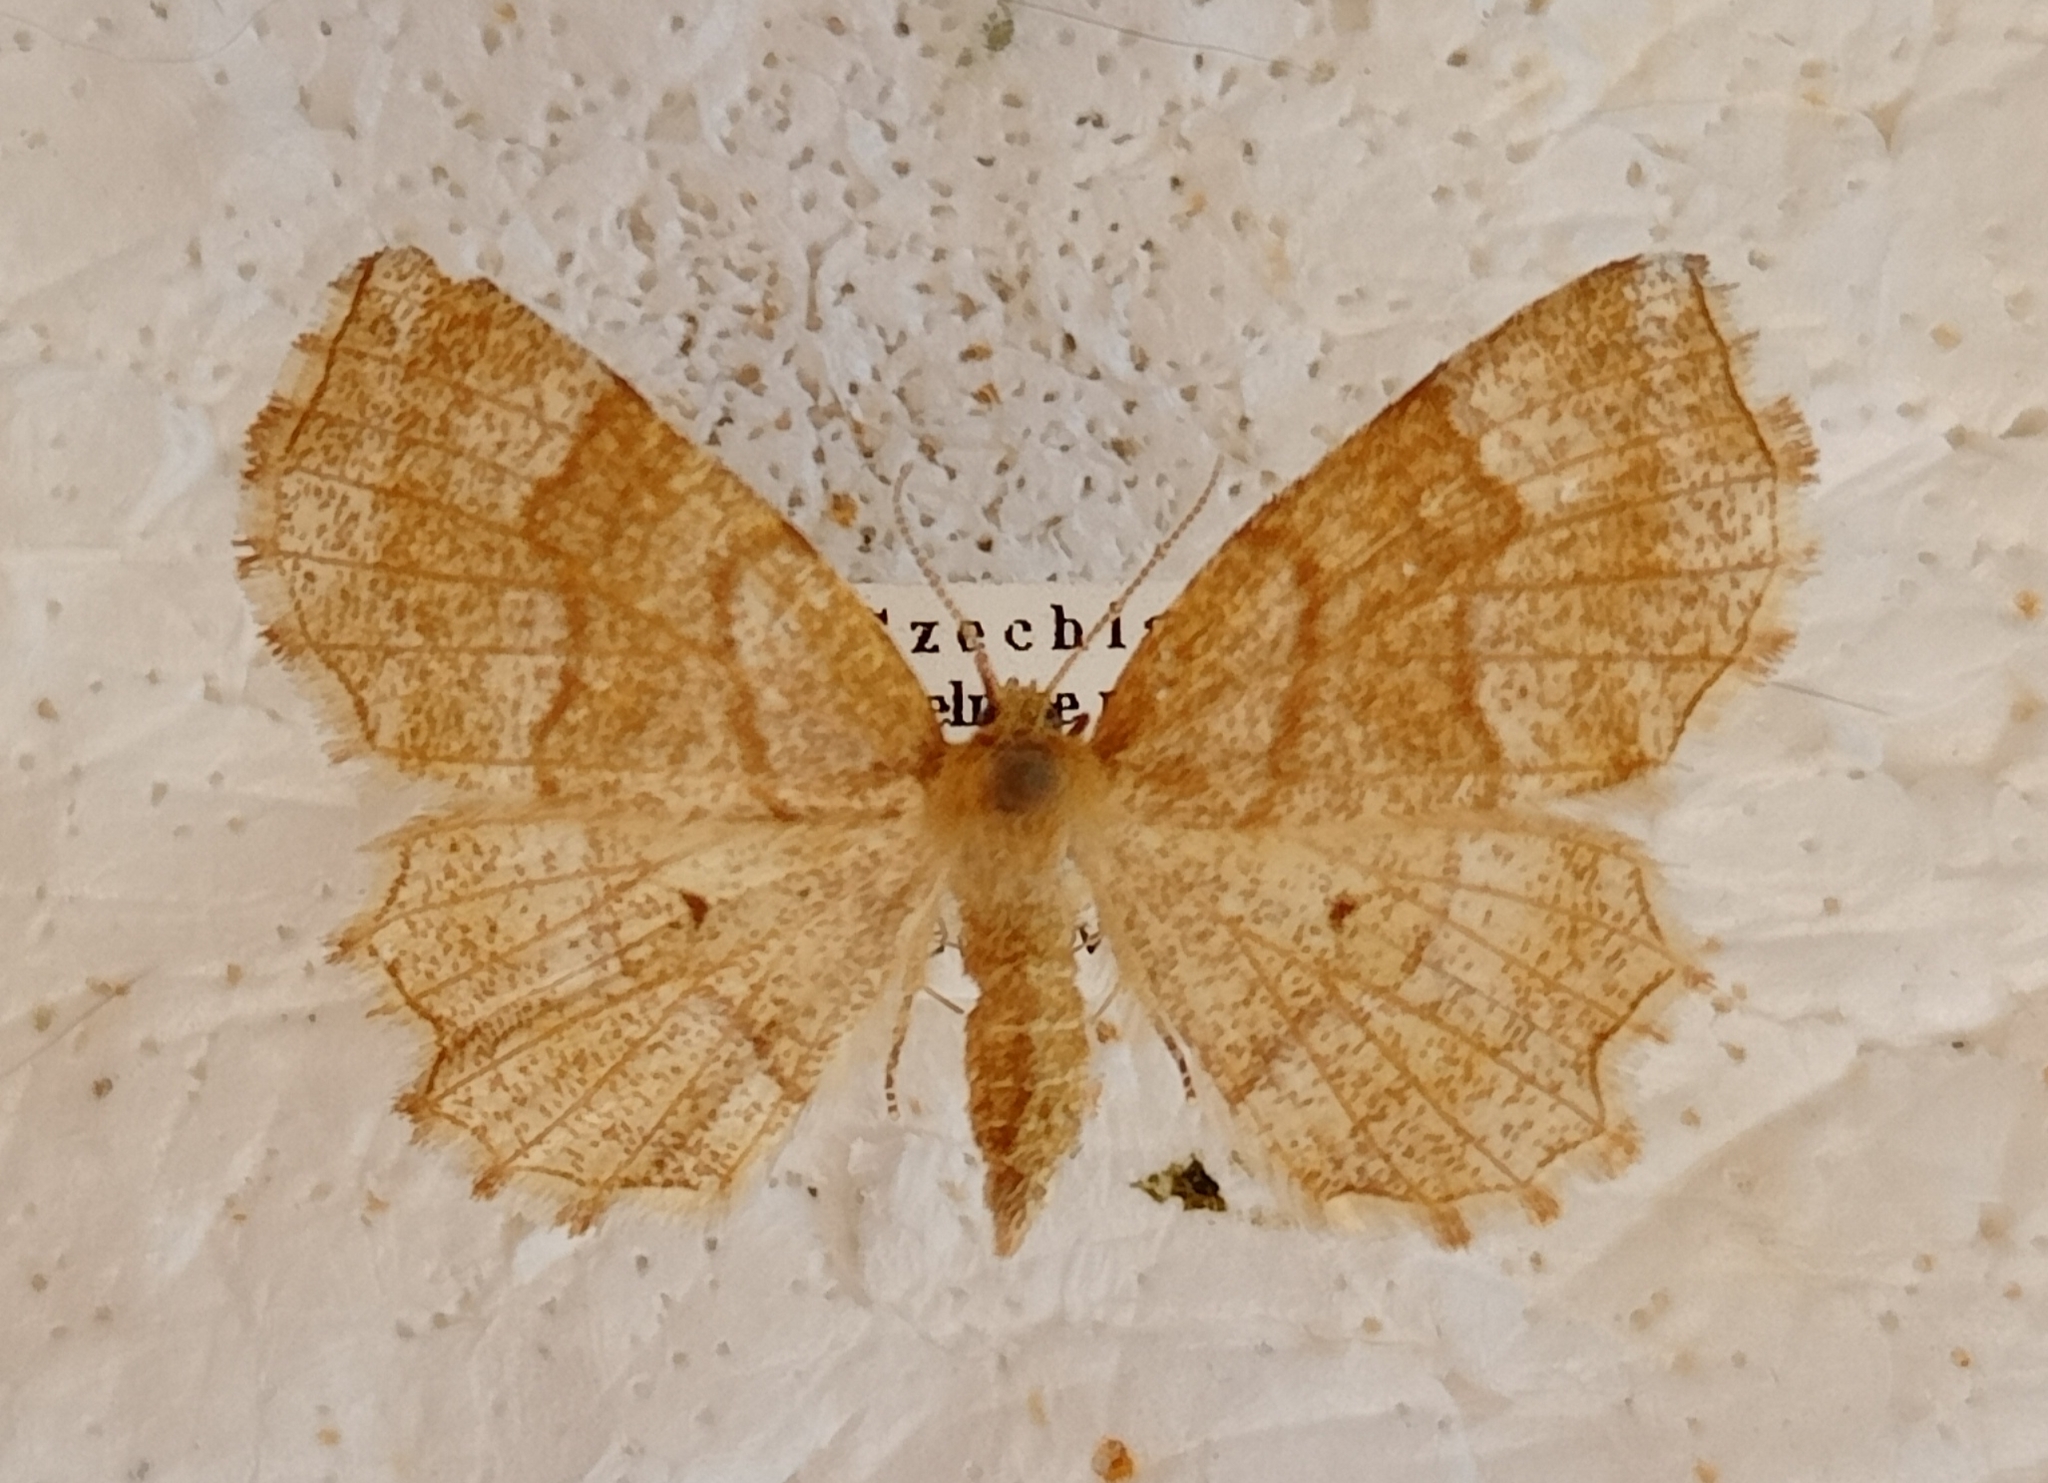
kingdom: Animalia
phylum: Arthropoda
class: Insecta
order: Lepidoptera
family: Geometridae
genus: Cepphis
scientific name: Cepphis advenaria
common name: Little thorn
